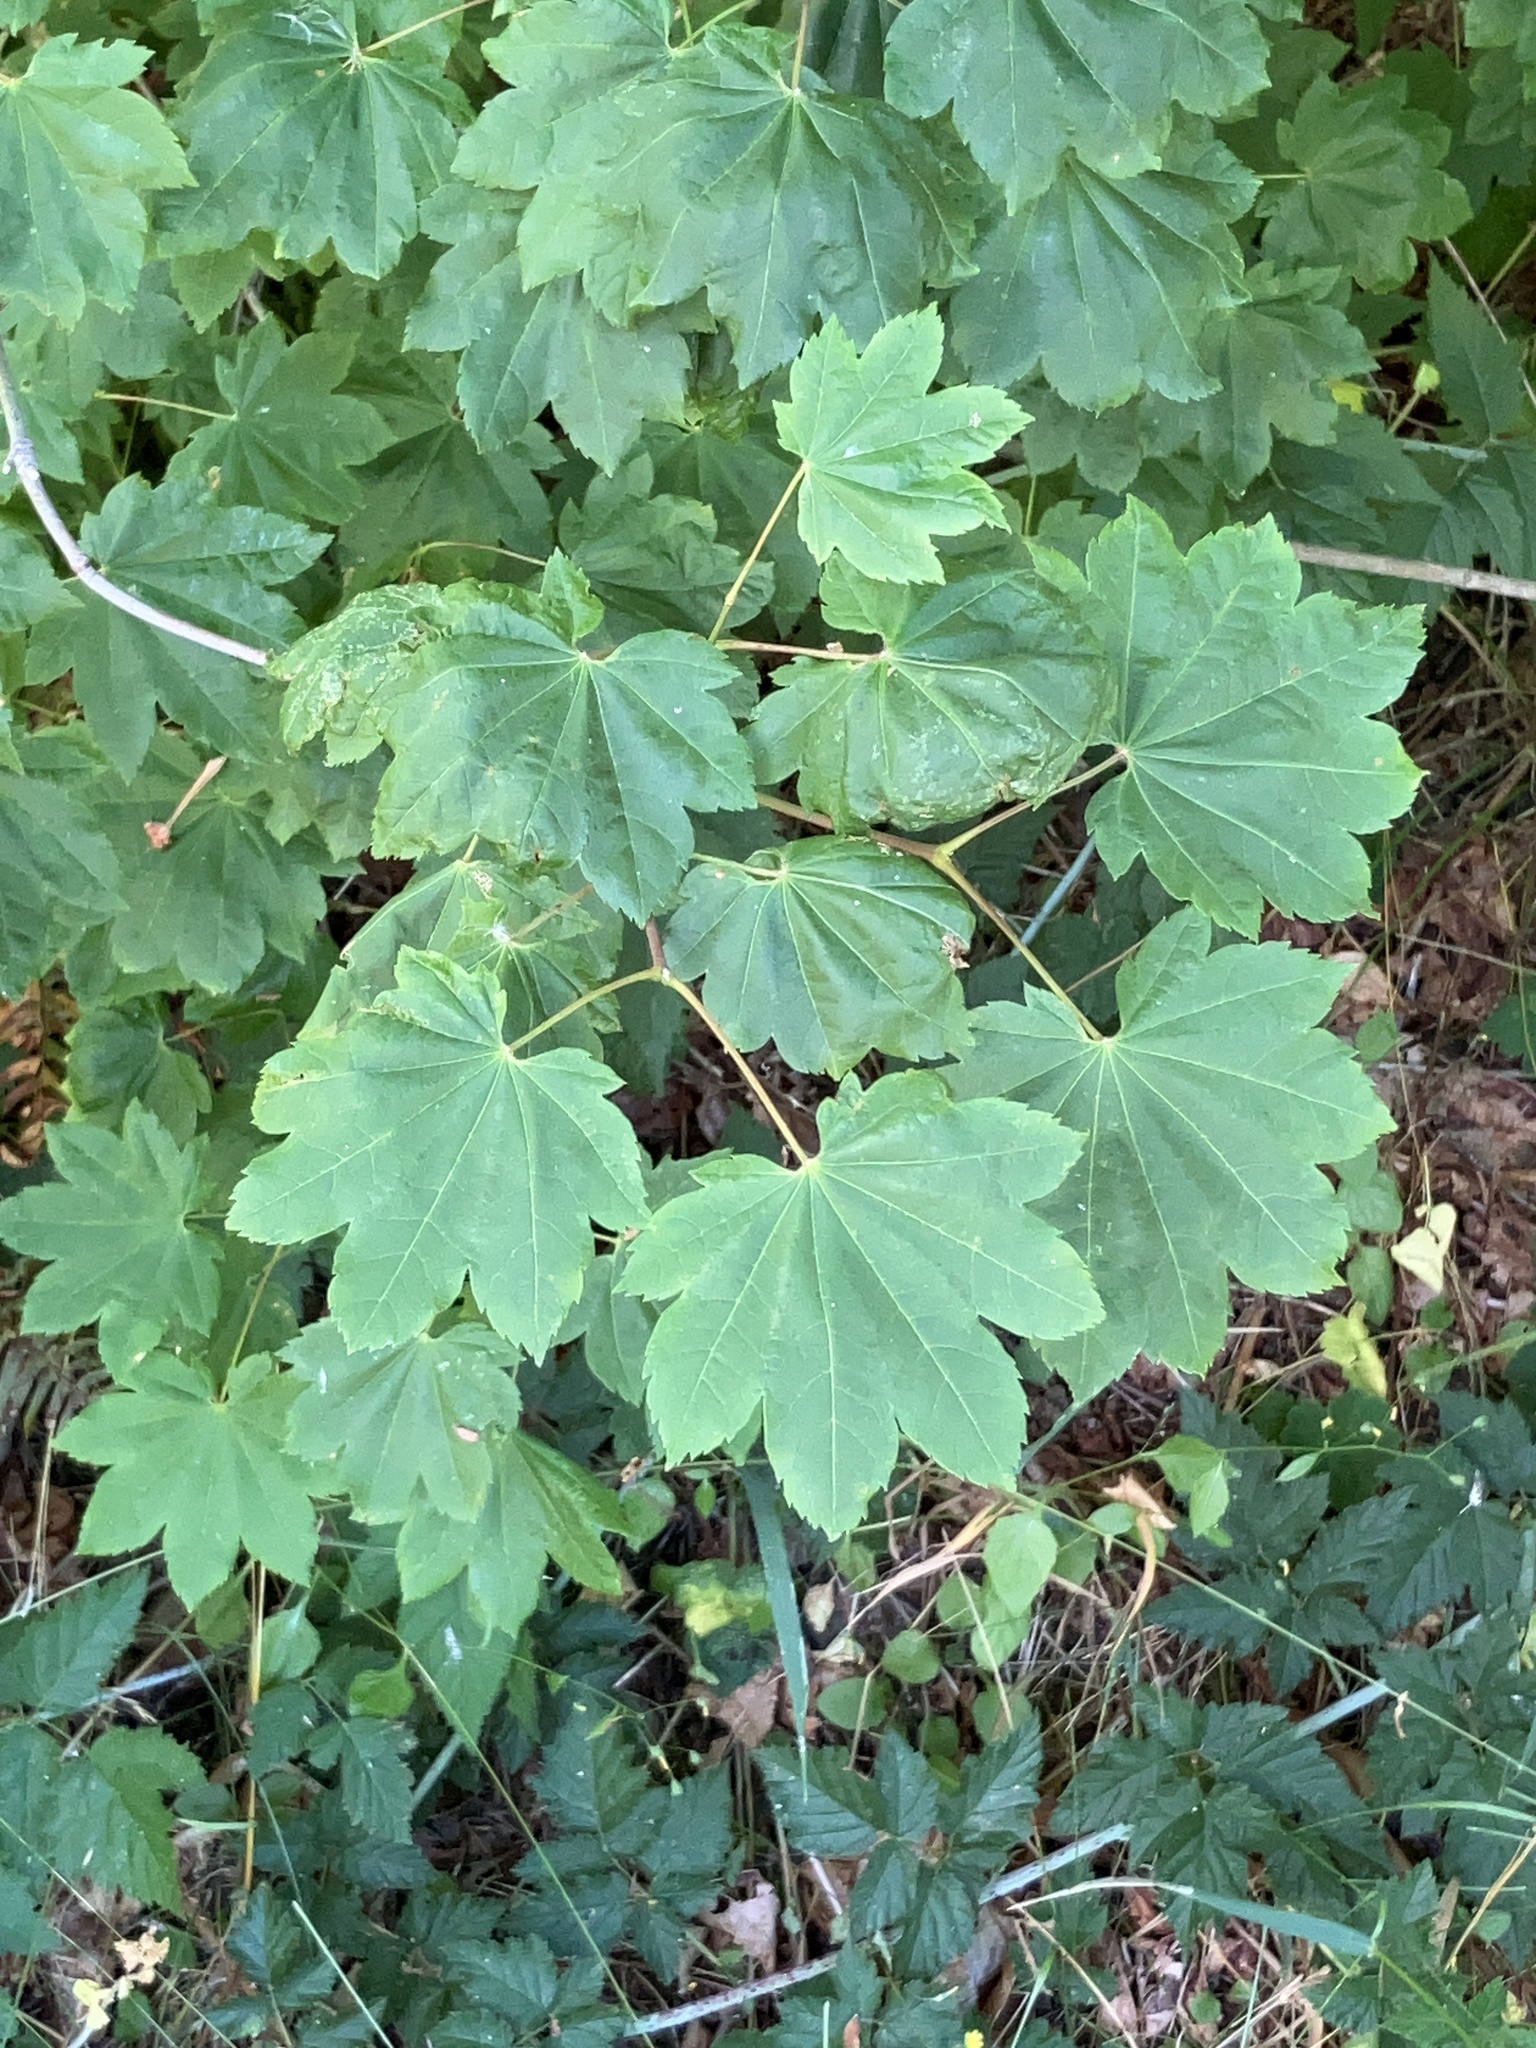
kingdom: Plantae
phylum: Tracheophyta
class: Magnoliopsida
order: Sapindales
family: Sapindaceae
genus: Acer
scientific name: Acer circinatum
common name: Vine maple
